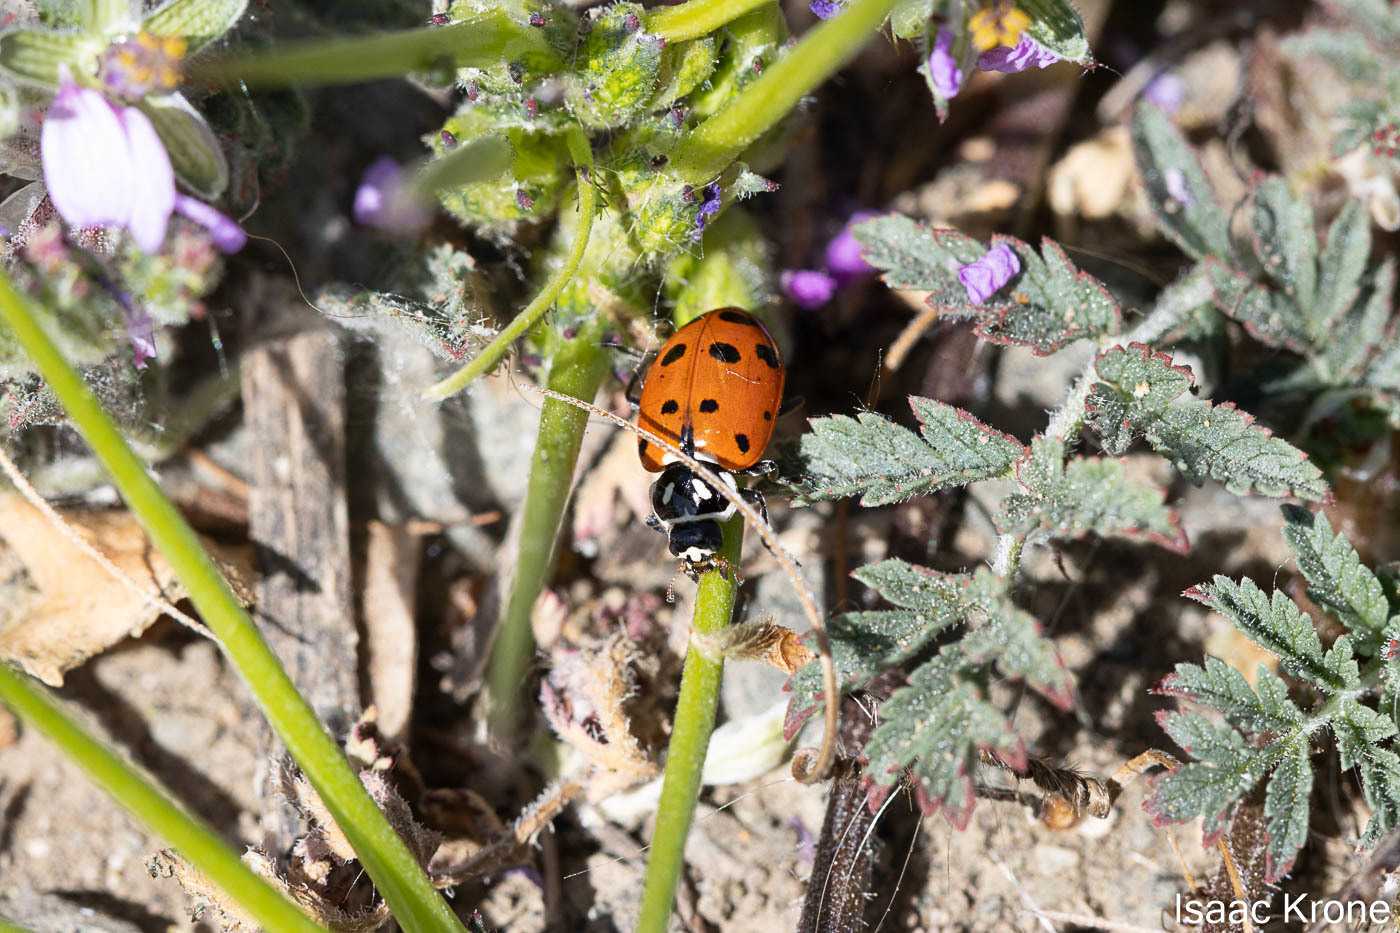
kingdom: Animalia
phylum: Arthropoda
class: Insecta
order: Coleoptera
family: Coccinellidae
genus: Hippodamia
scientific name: Hippodamia convergens
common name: Convergent lady beetle
